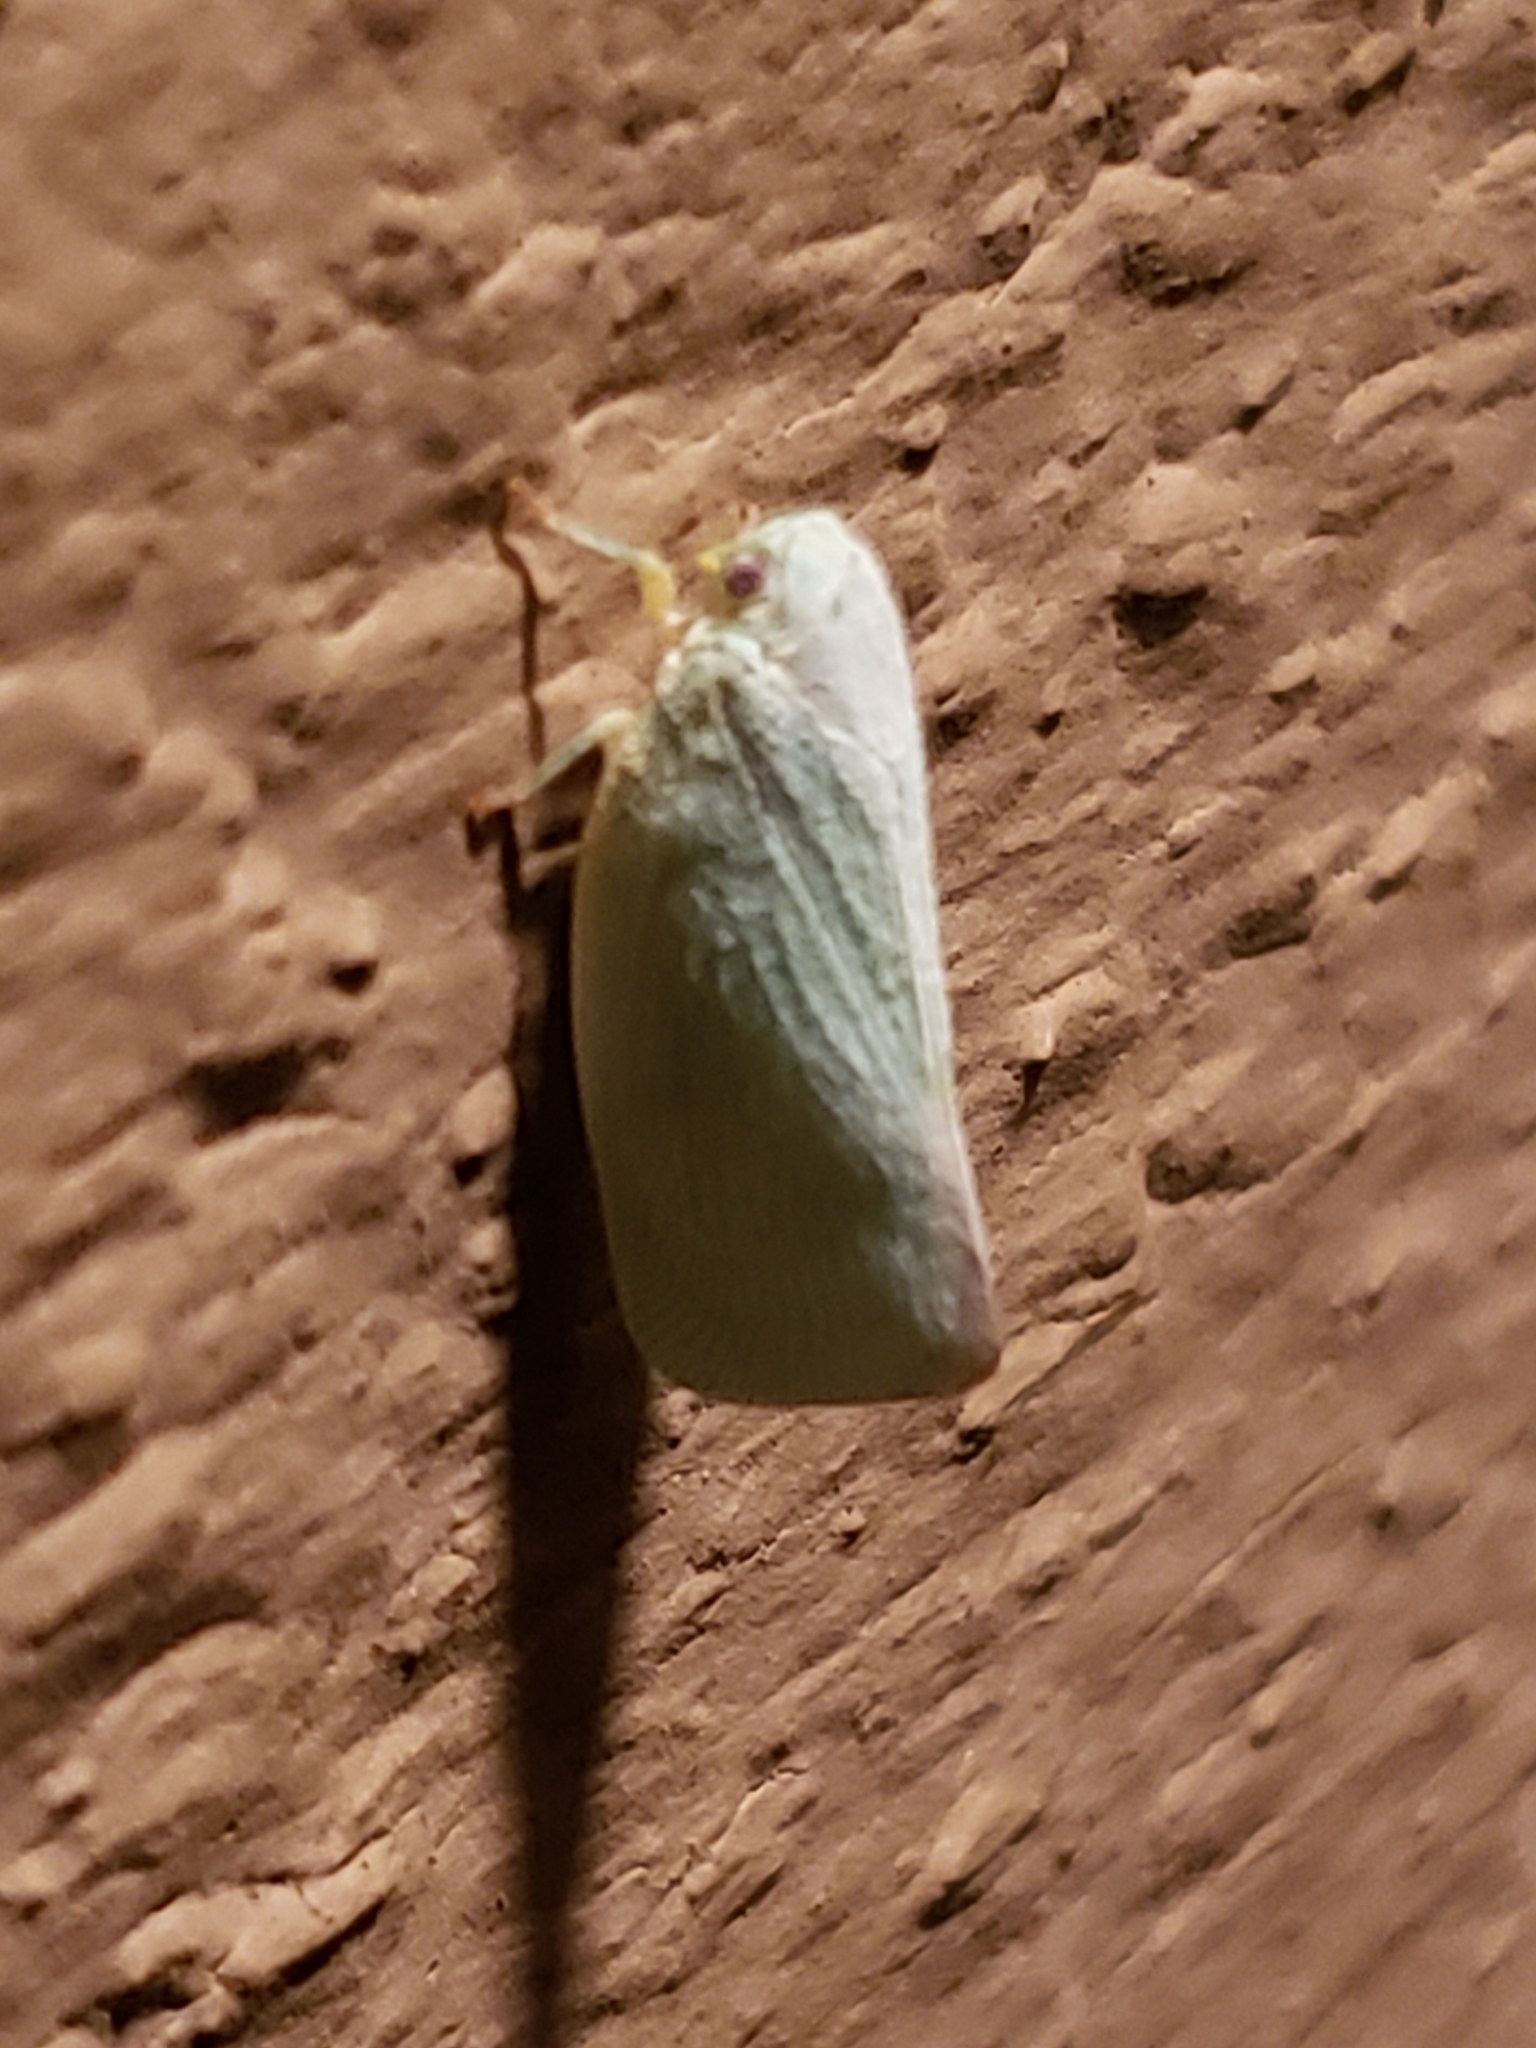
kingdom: Animalia
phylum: Arthropoda
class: Insecta
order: Hemiptera
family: Flatidae
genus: Flatormenis
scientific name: Flatormenis proxima
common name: Northern flatid planthopper
